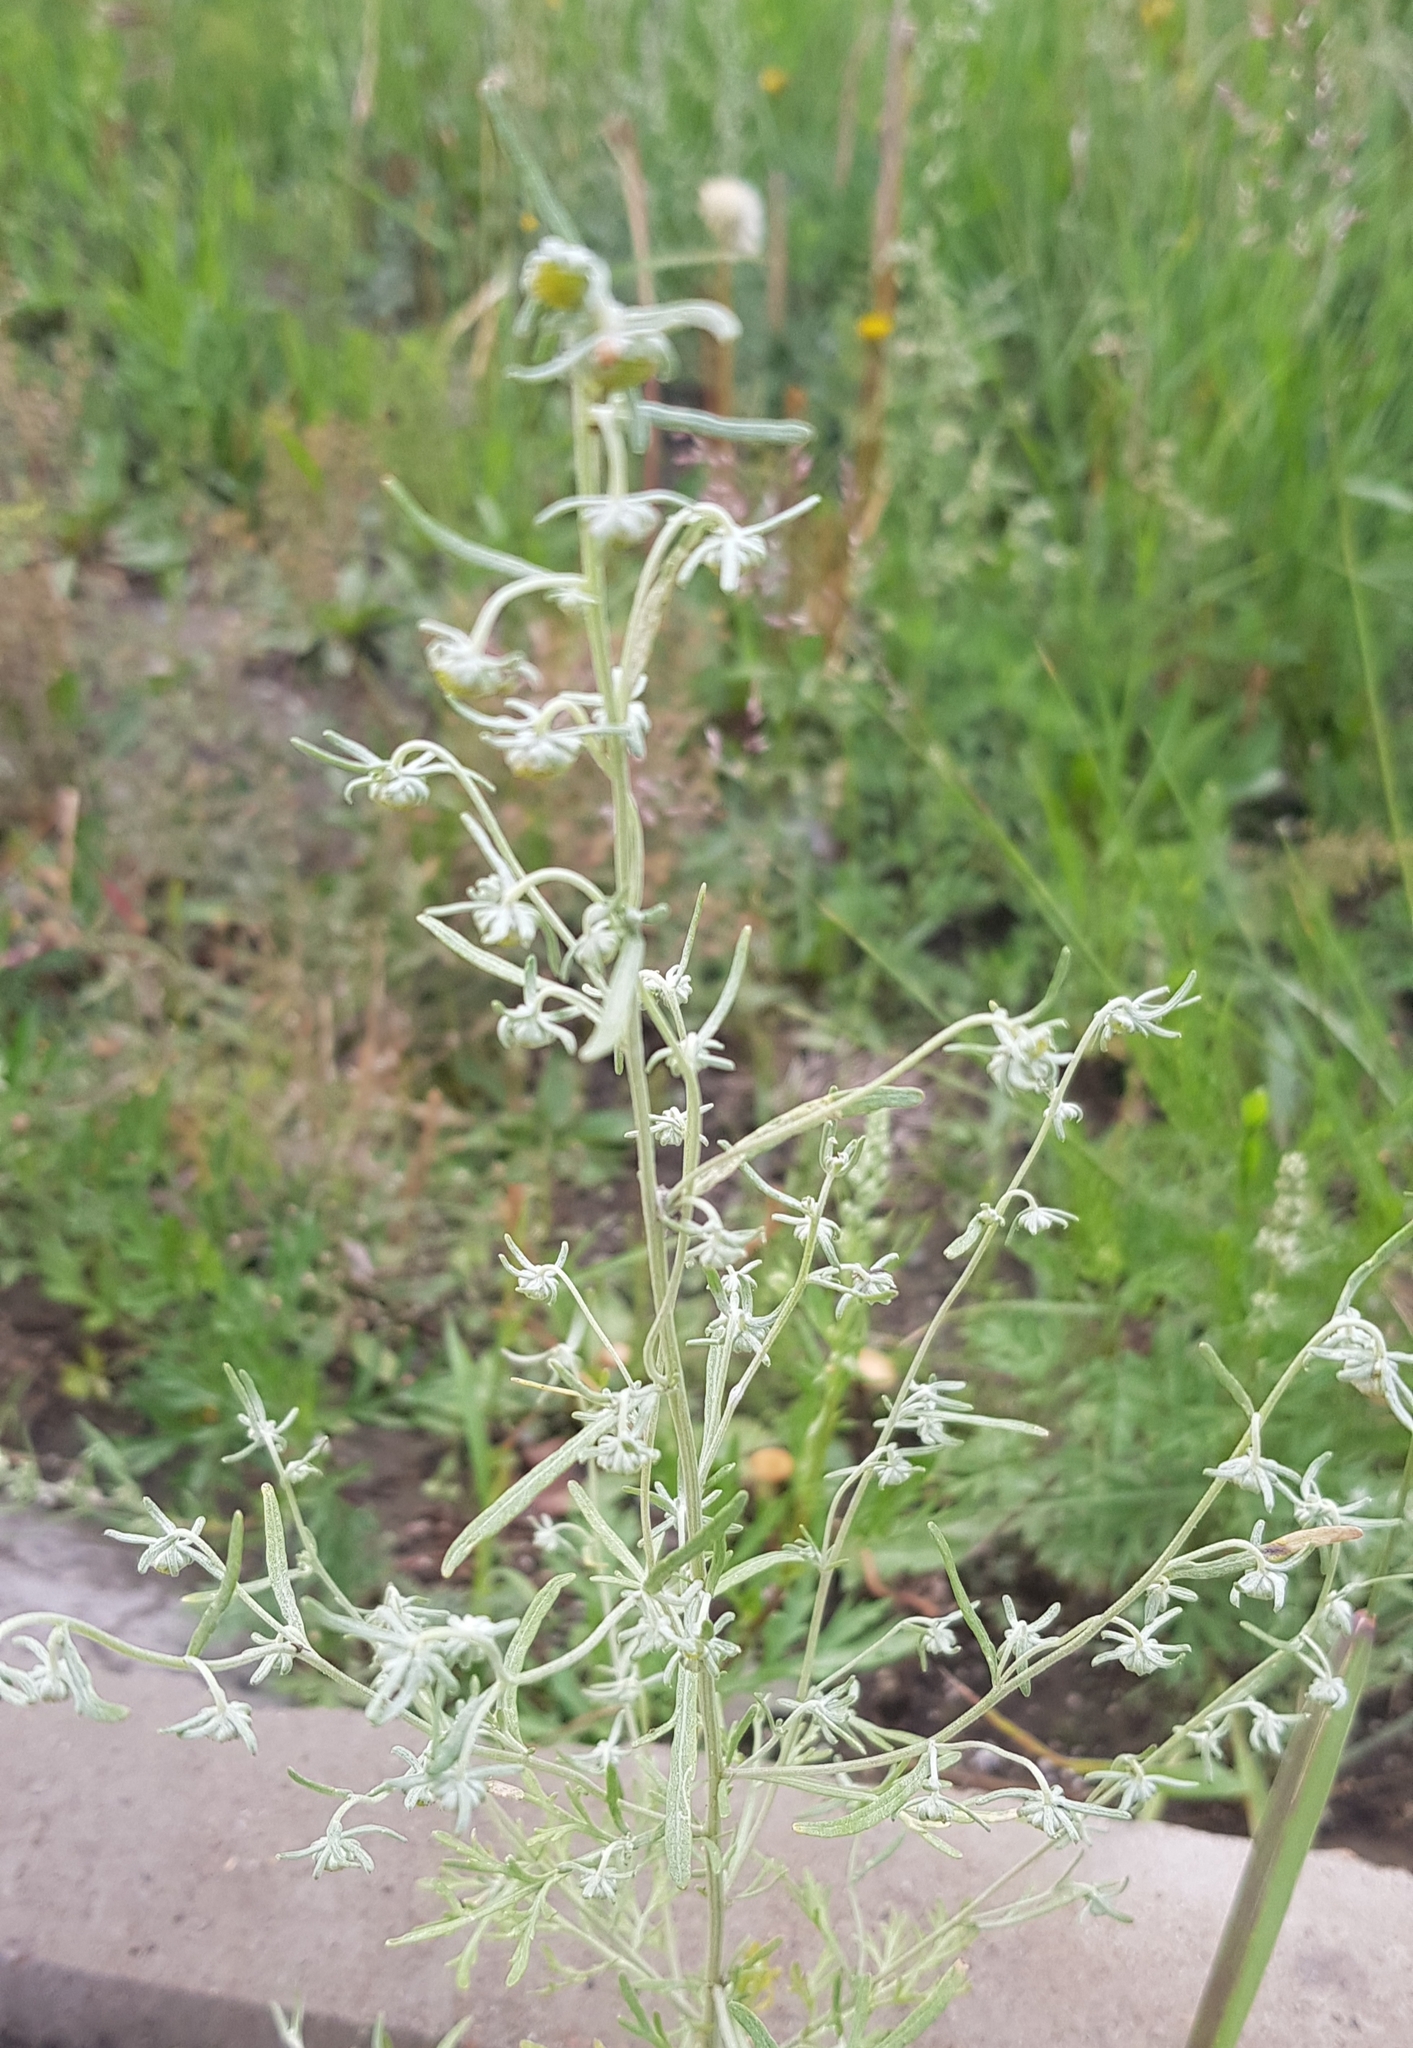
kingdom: Plantae
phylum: Tracheophyta
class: Magnoliopsida
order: Asterales
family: Asteraceae
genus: Artemisia
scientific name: Artemisia macrocephala
